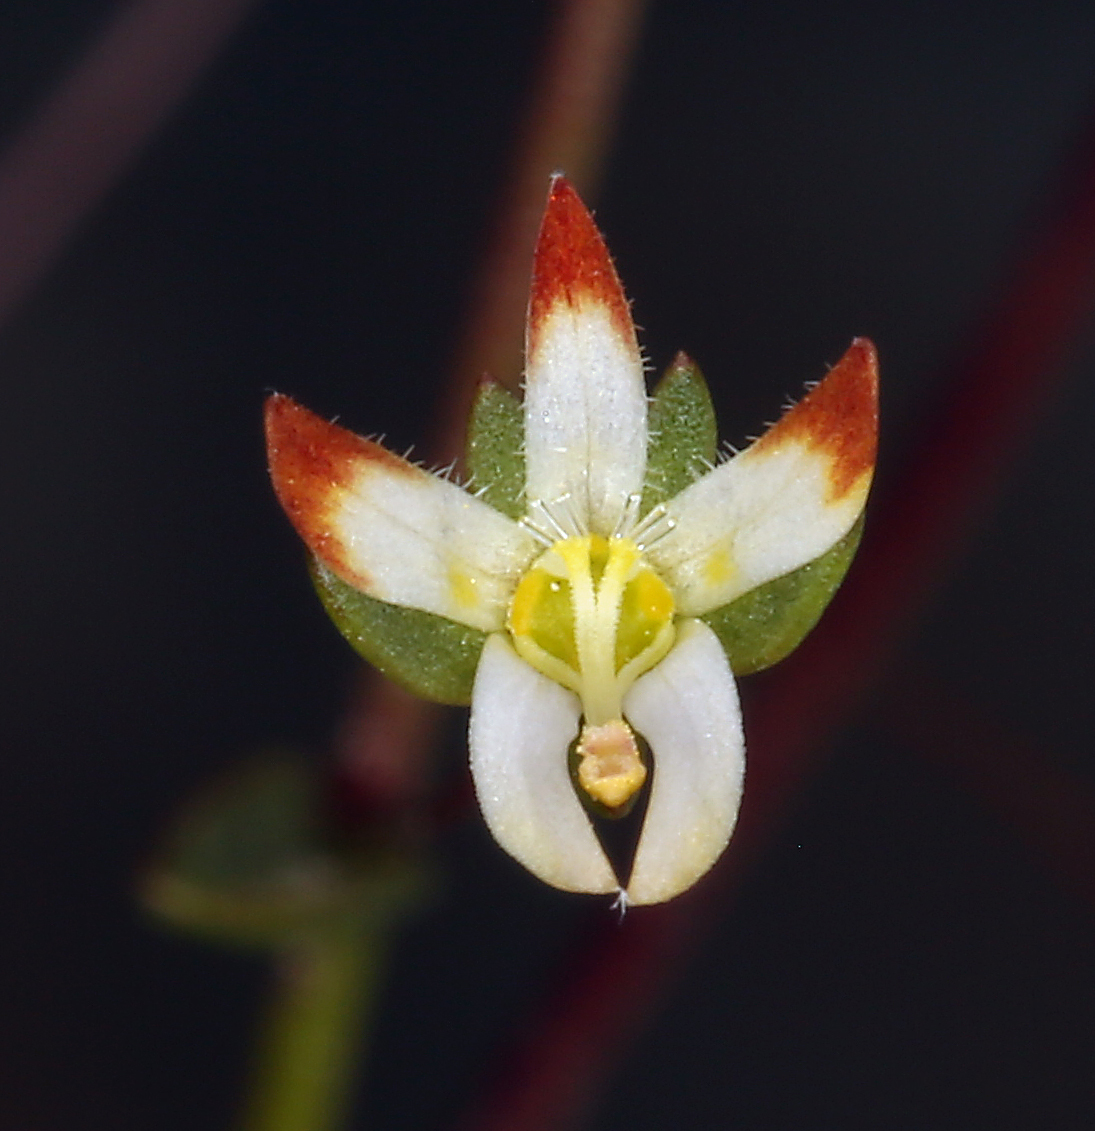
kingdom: Plantae
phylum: Tracheophyta
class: Magnoliopsida
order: Asterales
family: Campanulaceae
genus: Nemacladus
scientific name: Nemacladus morefieldii
